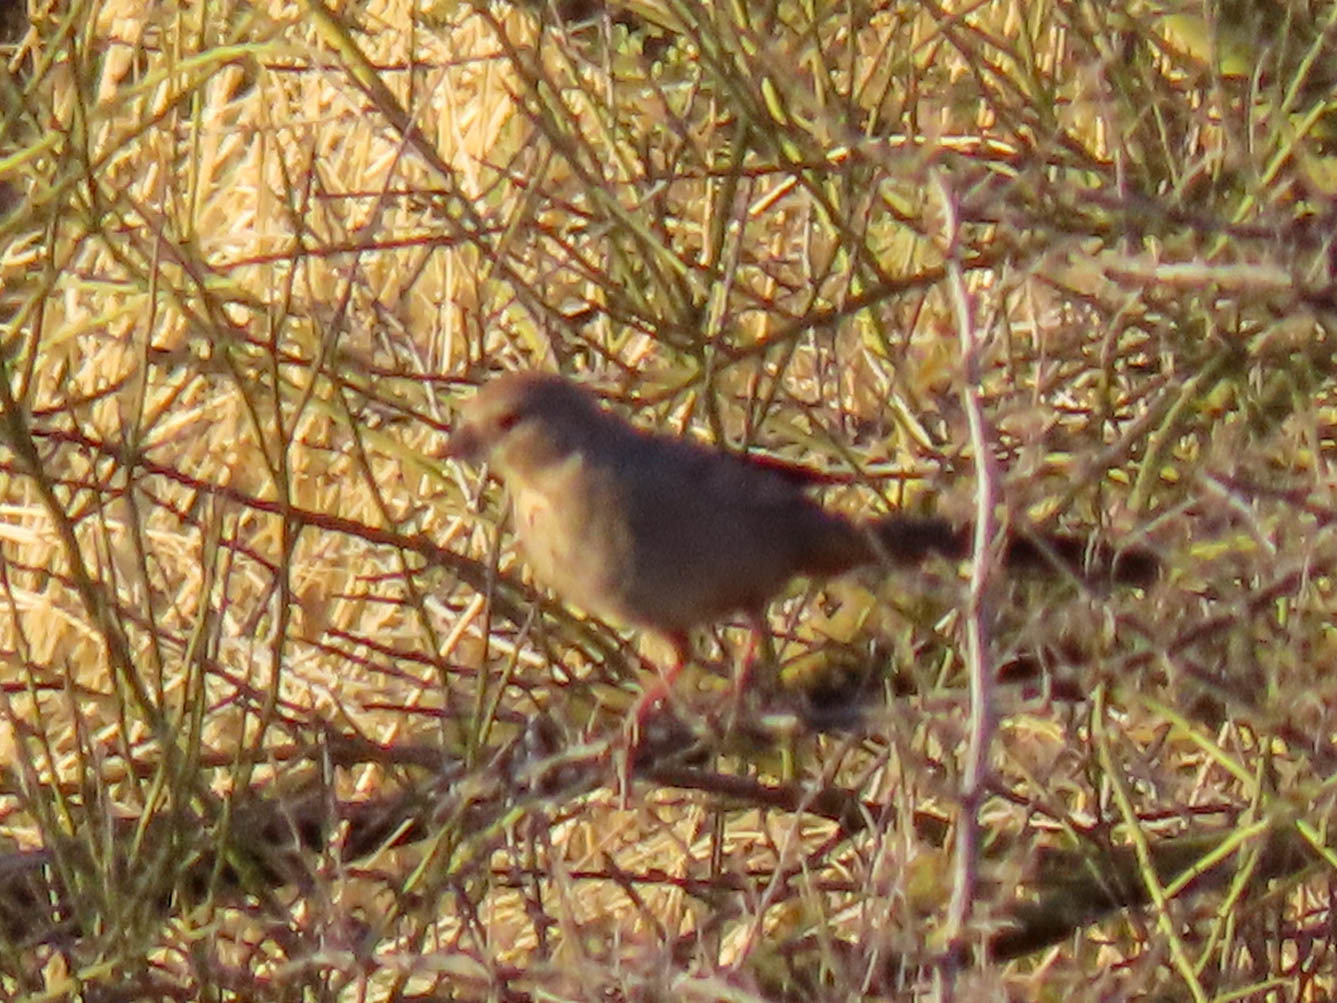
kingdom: Animalia
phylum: Chordata
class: Aves
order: Passeriformes
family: Passerellidae
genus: Melozone
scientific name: Melozone fusca
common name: Canyon towhee
